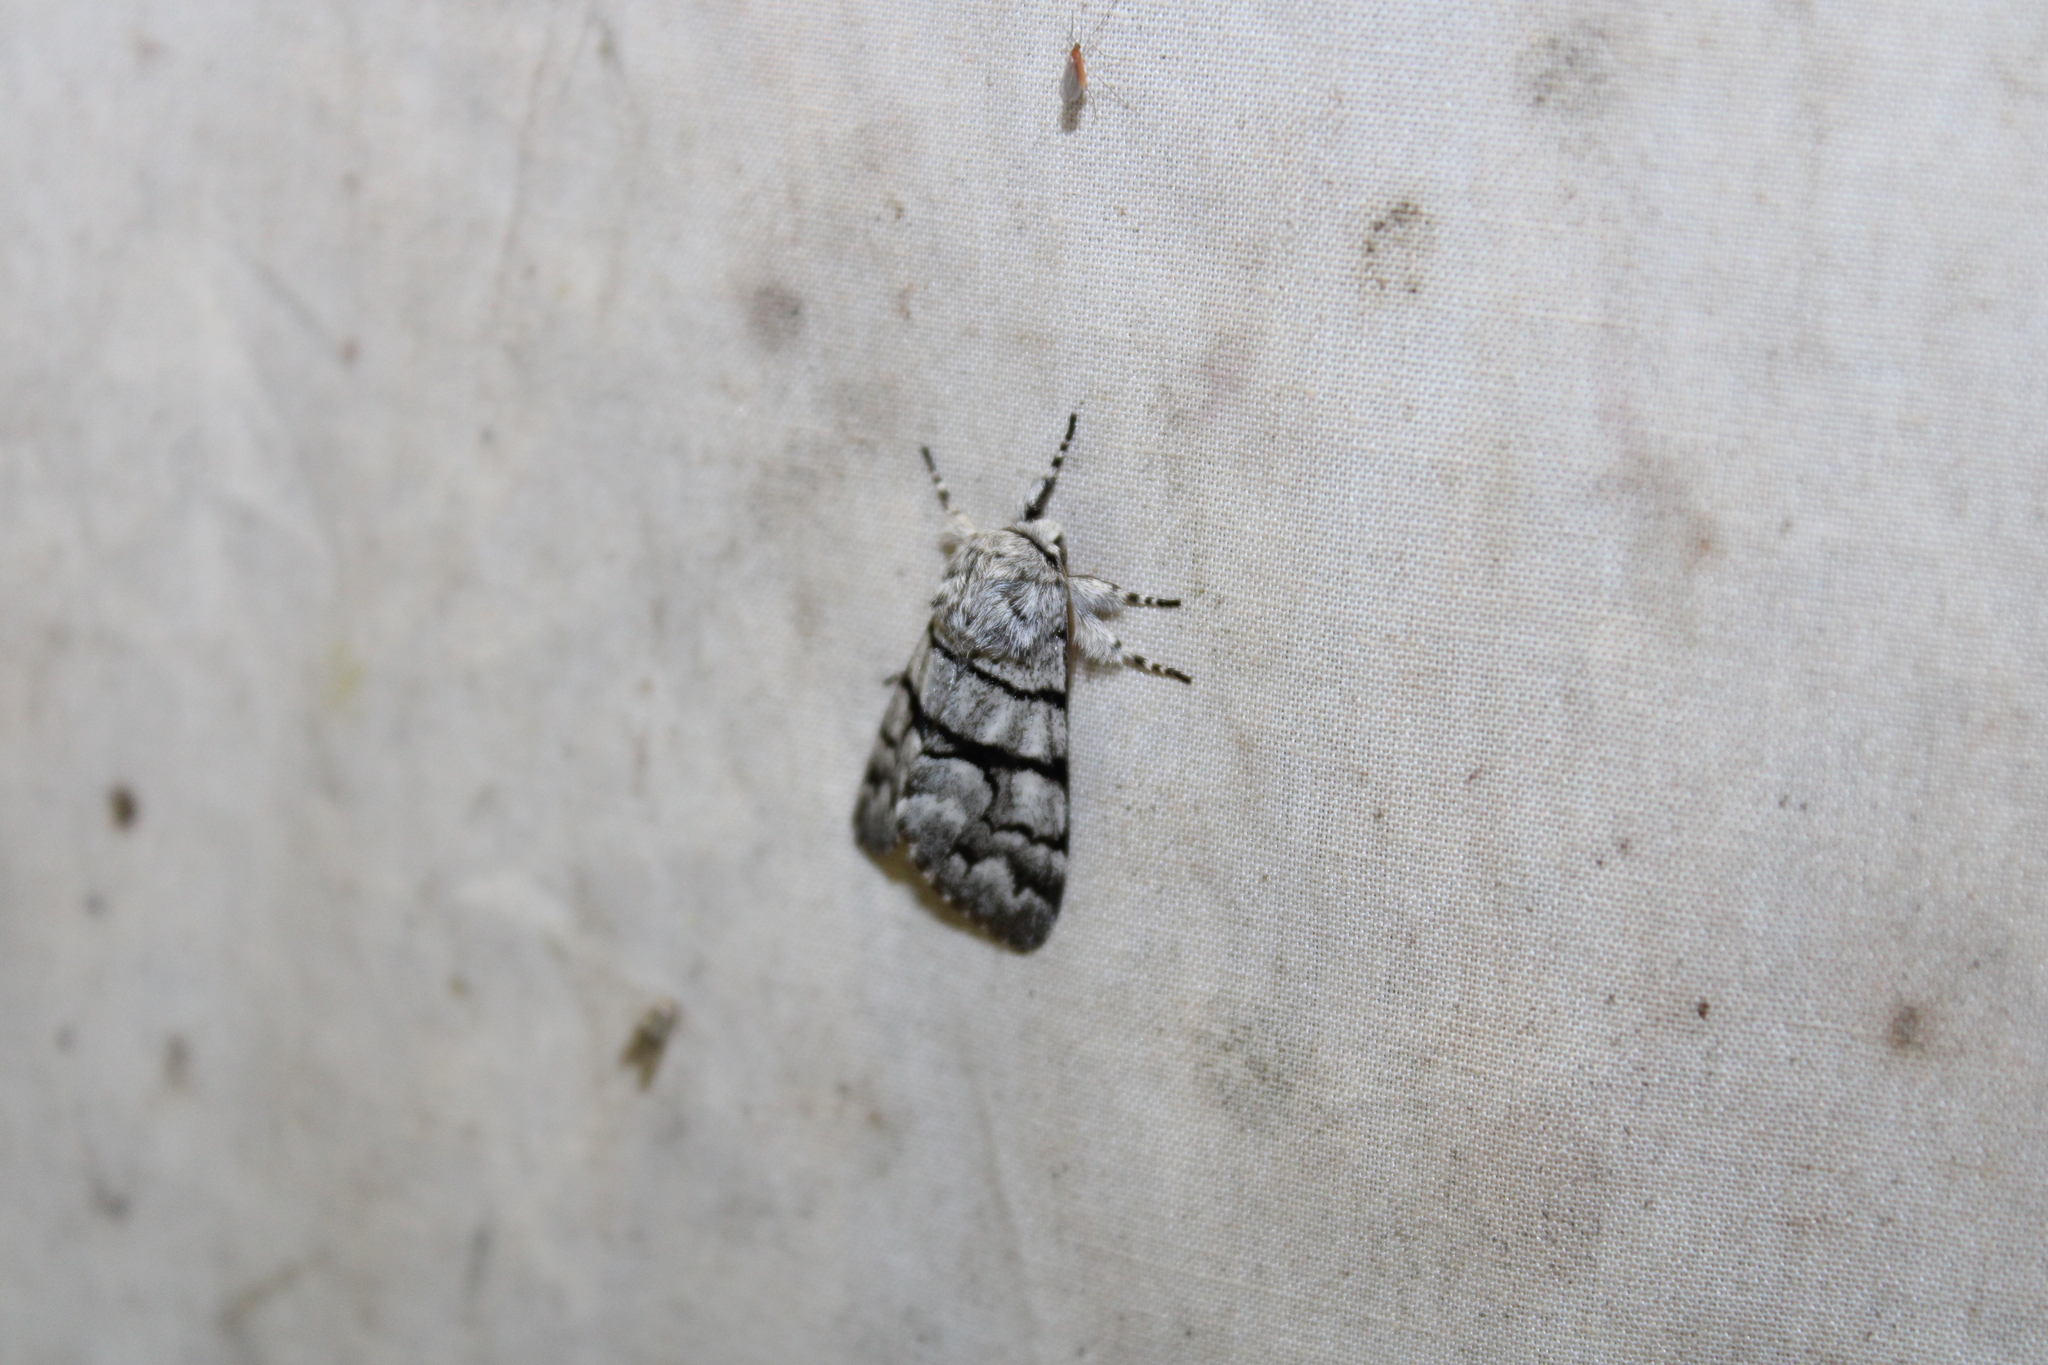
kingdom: Animalia
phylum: Arthropoda
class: Insecta
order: Lepidoptera
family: Noctuidae
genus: Panthea
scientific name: Panthea furcilla
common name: Eastern panthea moth
